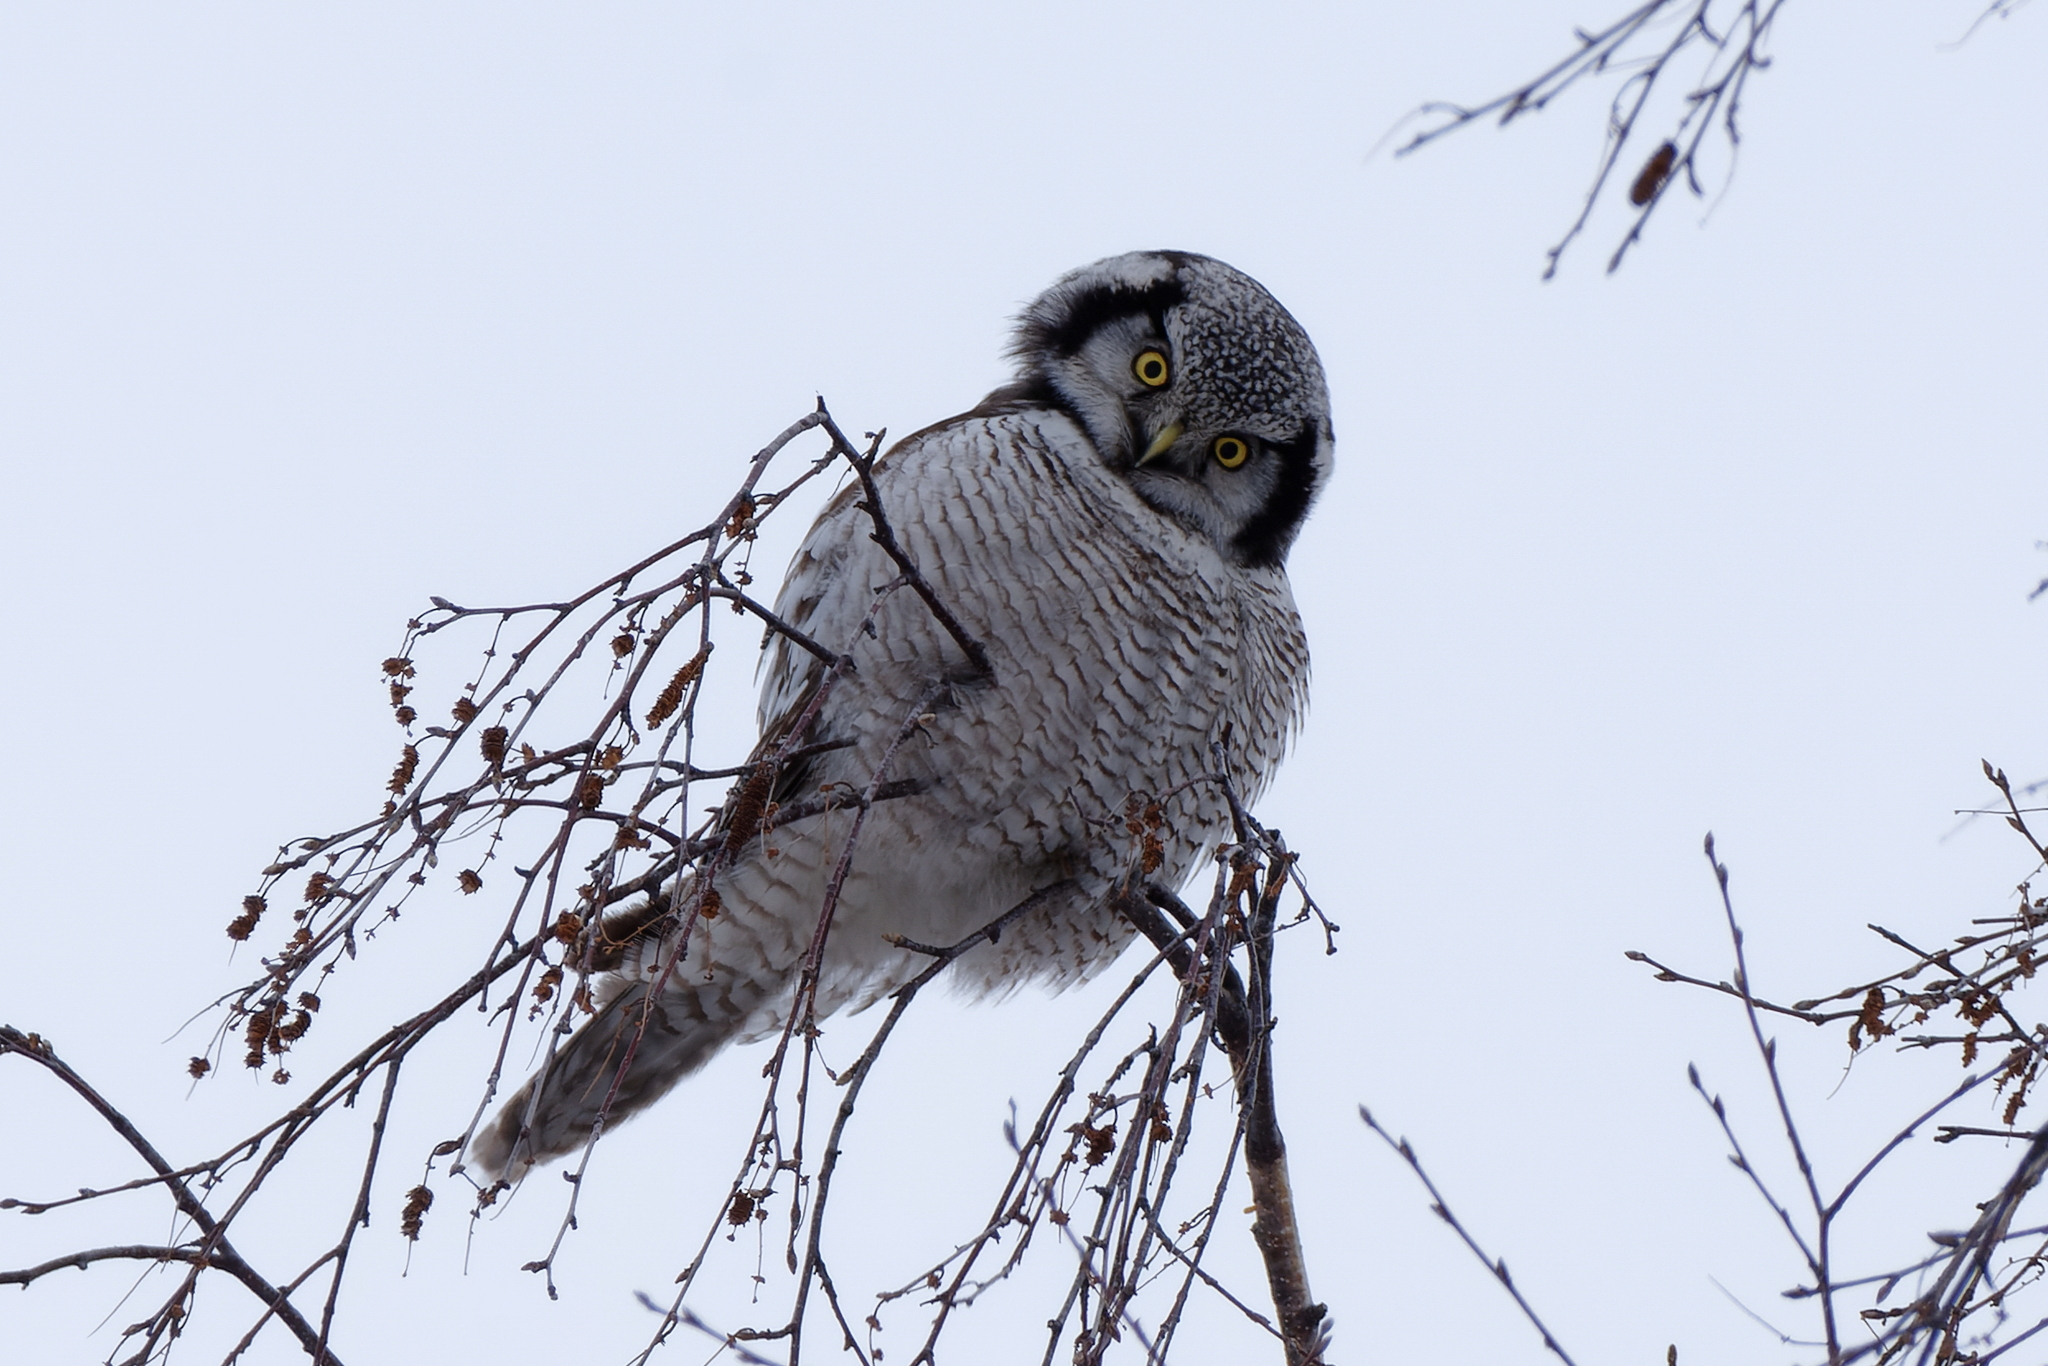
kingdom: Animalia
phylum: Chordata
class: Aves
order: Strigiformes
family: Strigidae
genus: Surnia
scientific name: Surnia ulula
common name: Northern hawk-owl
